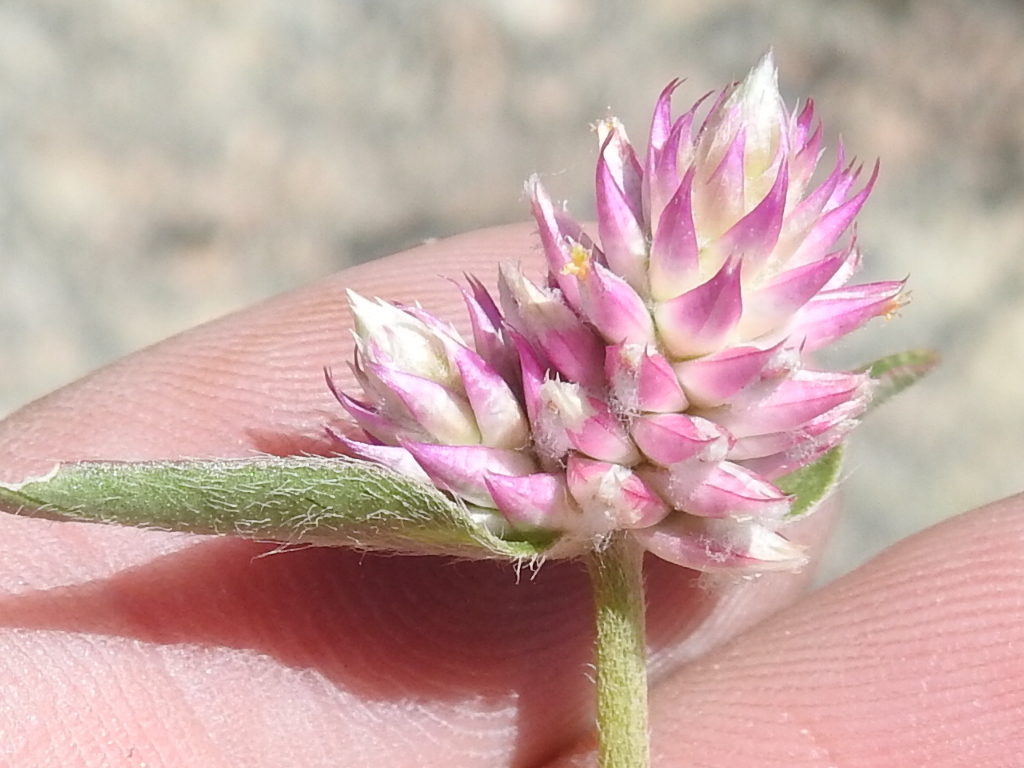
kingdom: Plantae
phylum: Tracheophyta
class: Magnoliopsida
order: Caryophyllales
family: Amaranthaceae
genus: Gomphrena
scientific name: Gomphrena sonorae
